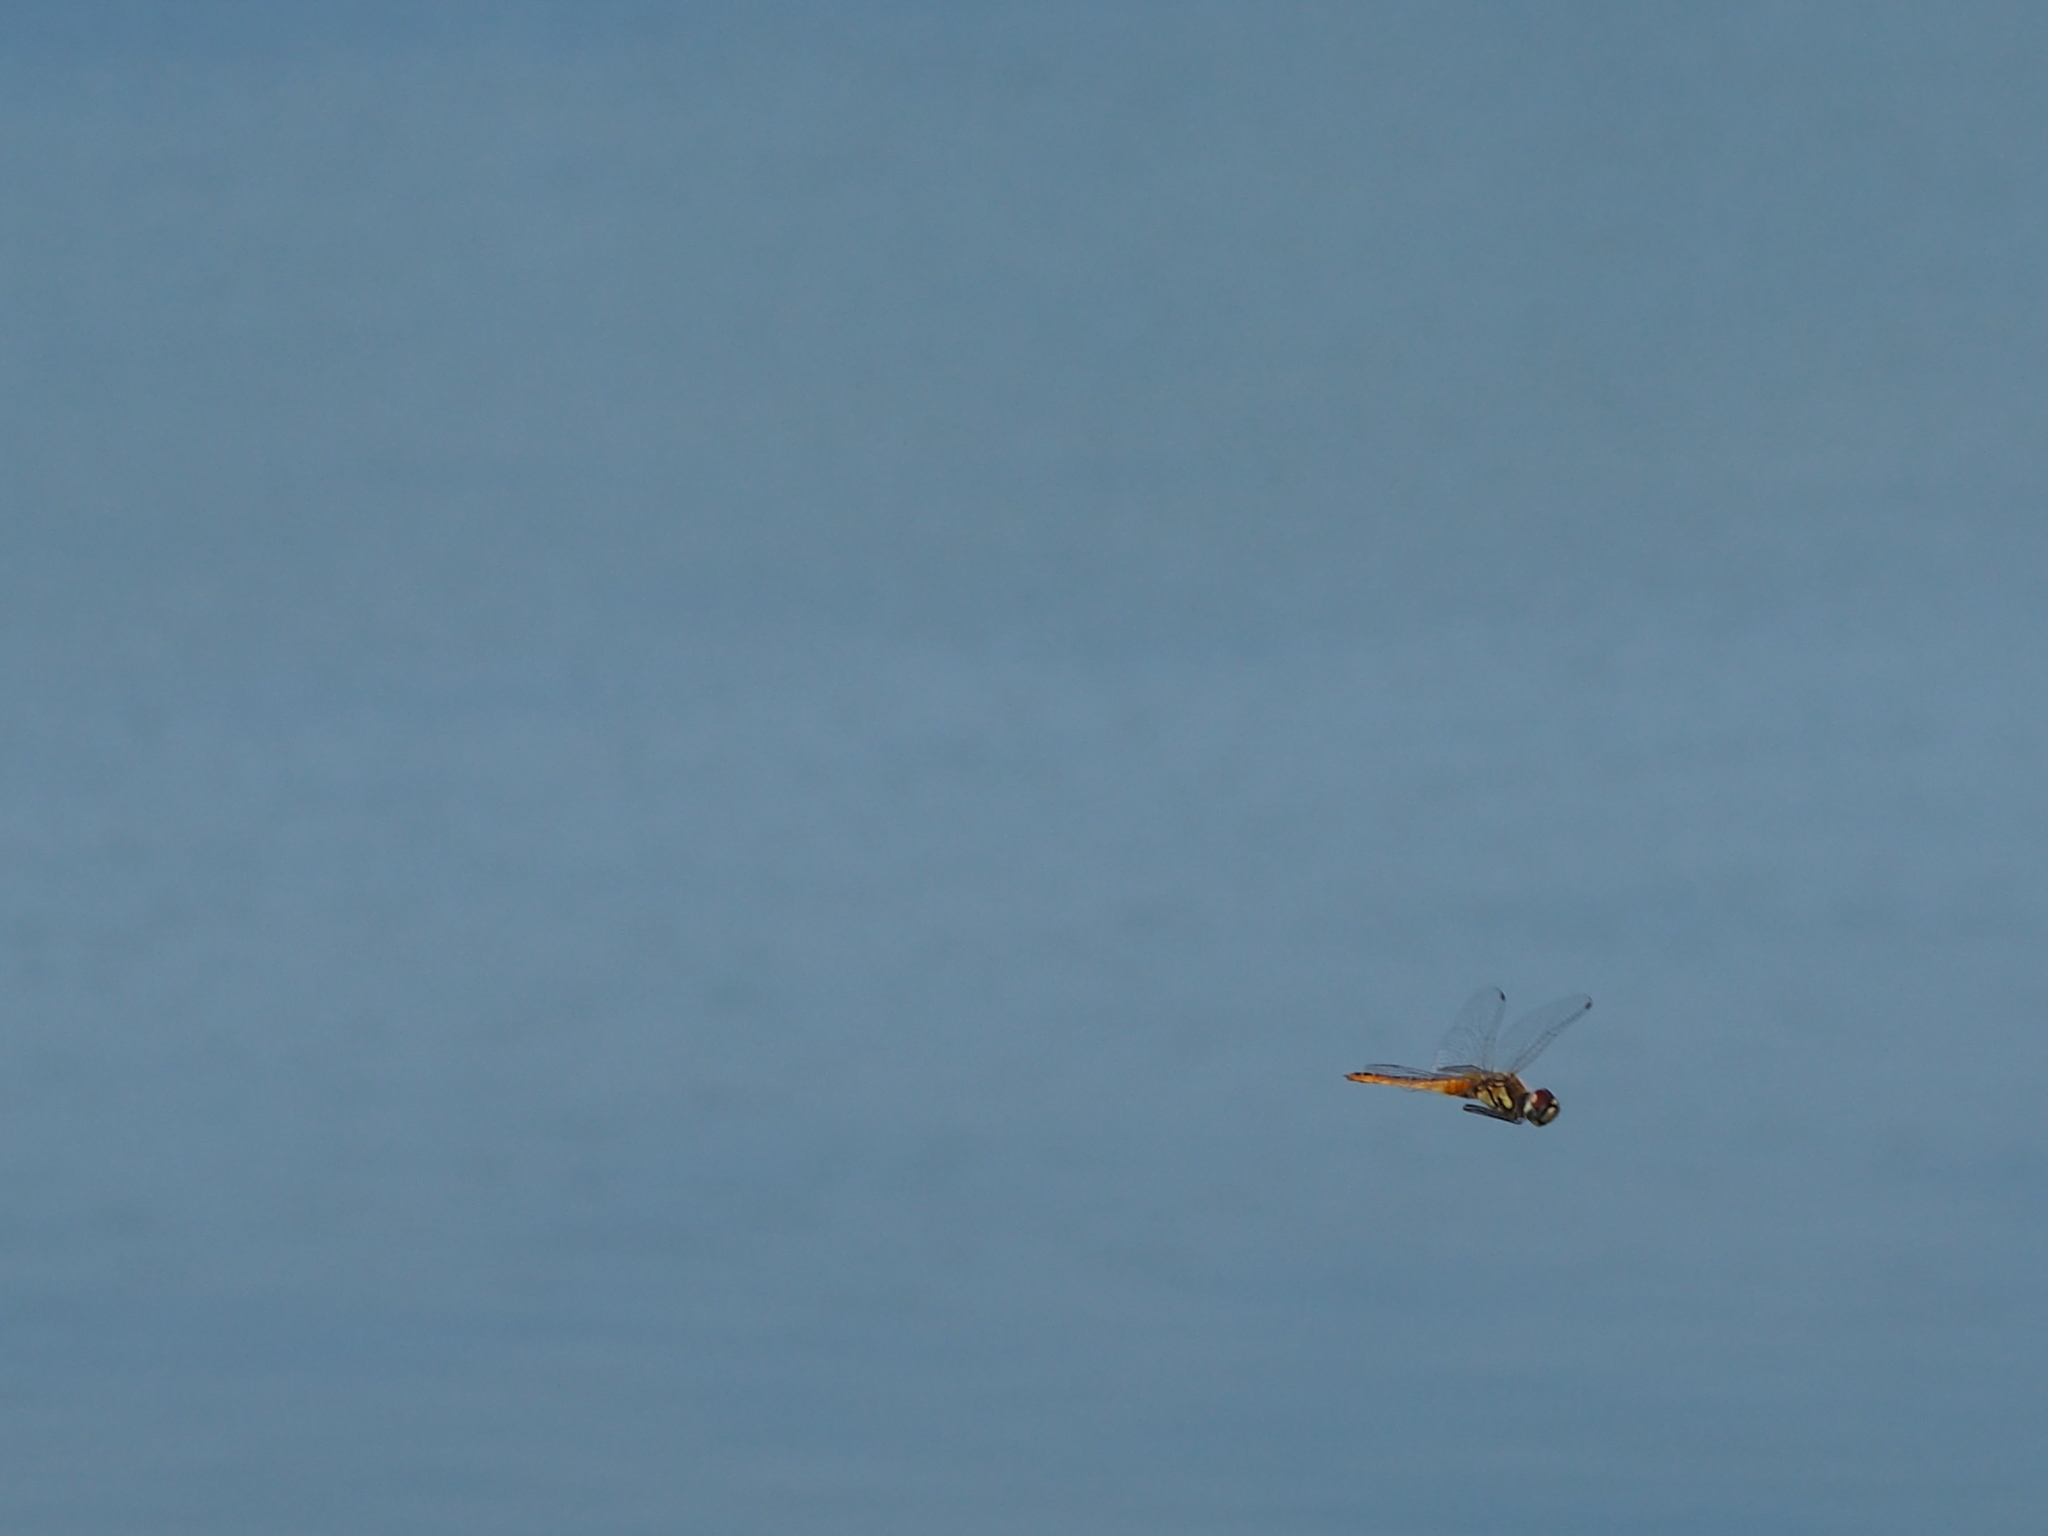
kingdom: Animalia
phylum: Arthropoda
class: Insecta
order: Odonata
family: Libellulidae
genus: Macrodiplax
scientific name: Macrodiplax cora
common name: Coastal glider
